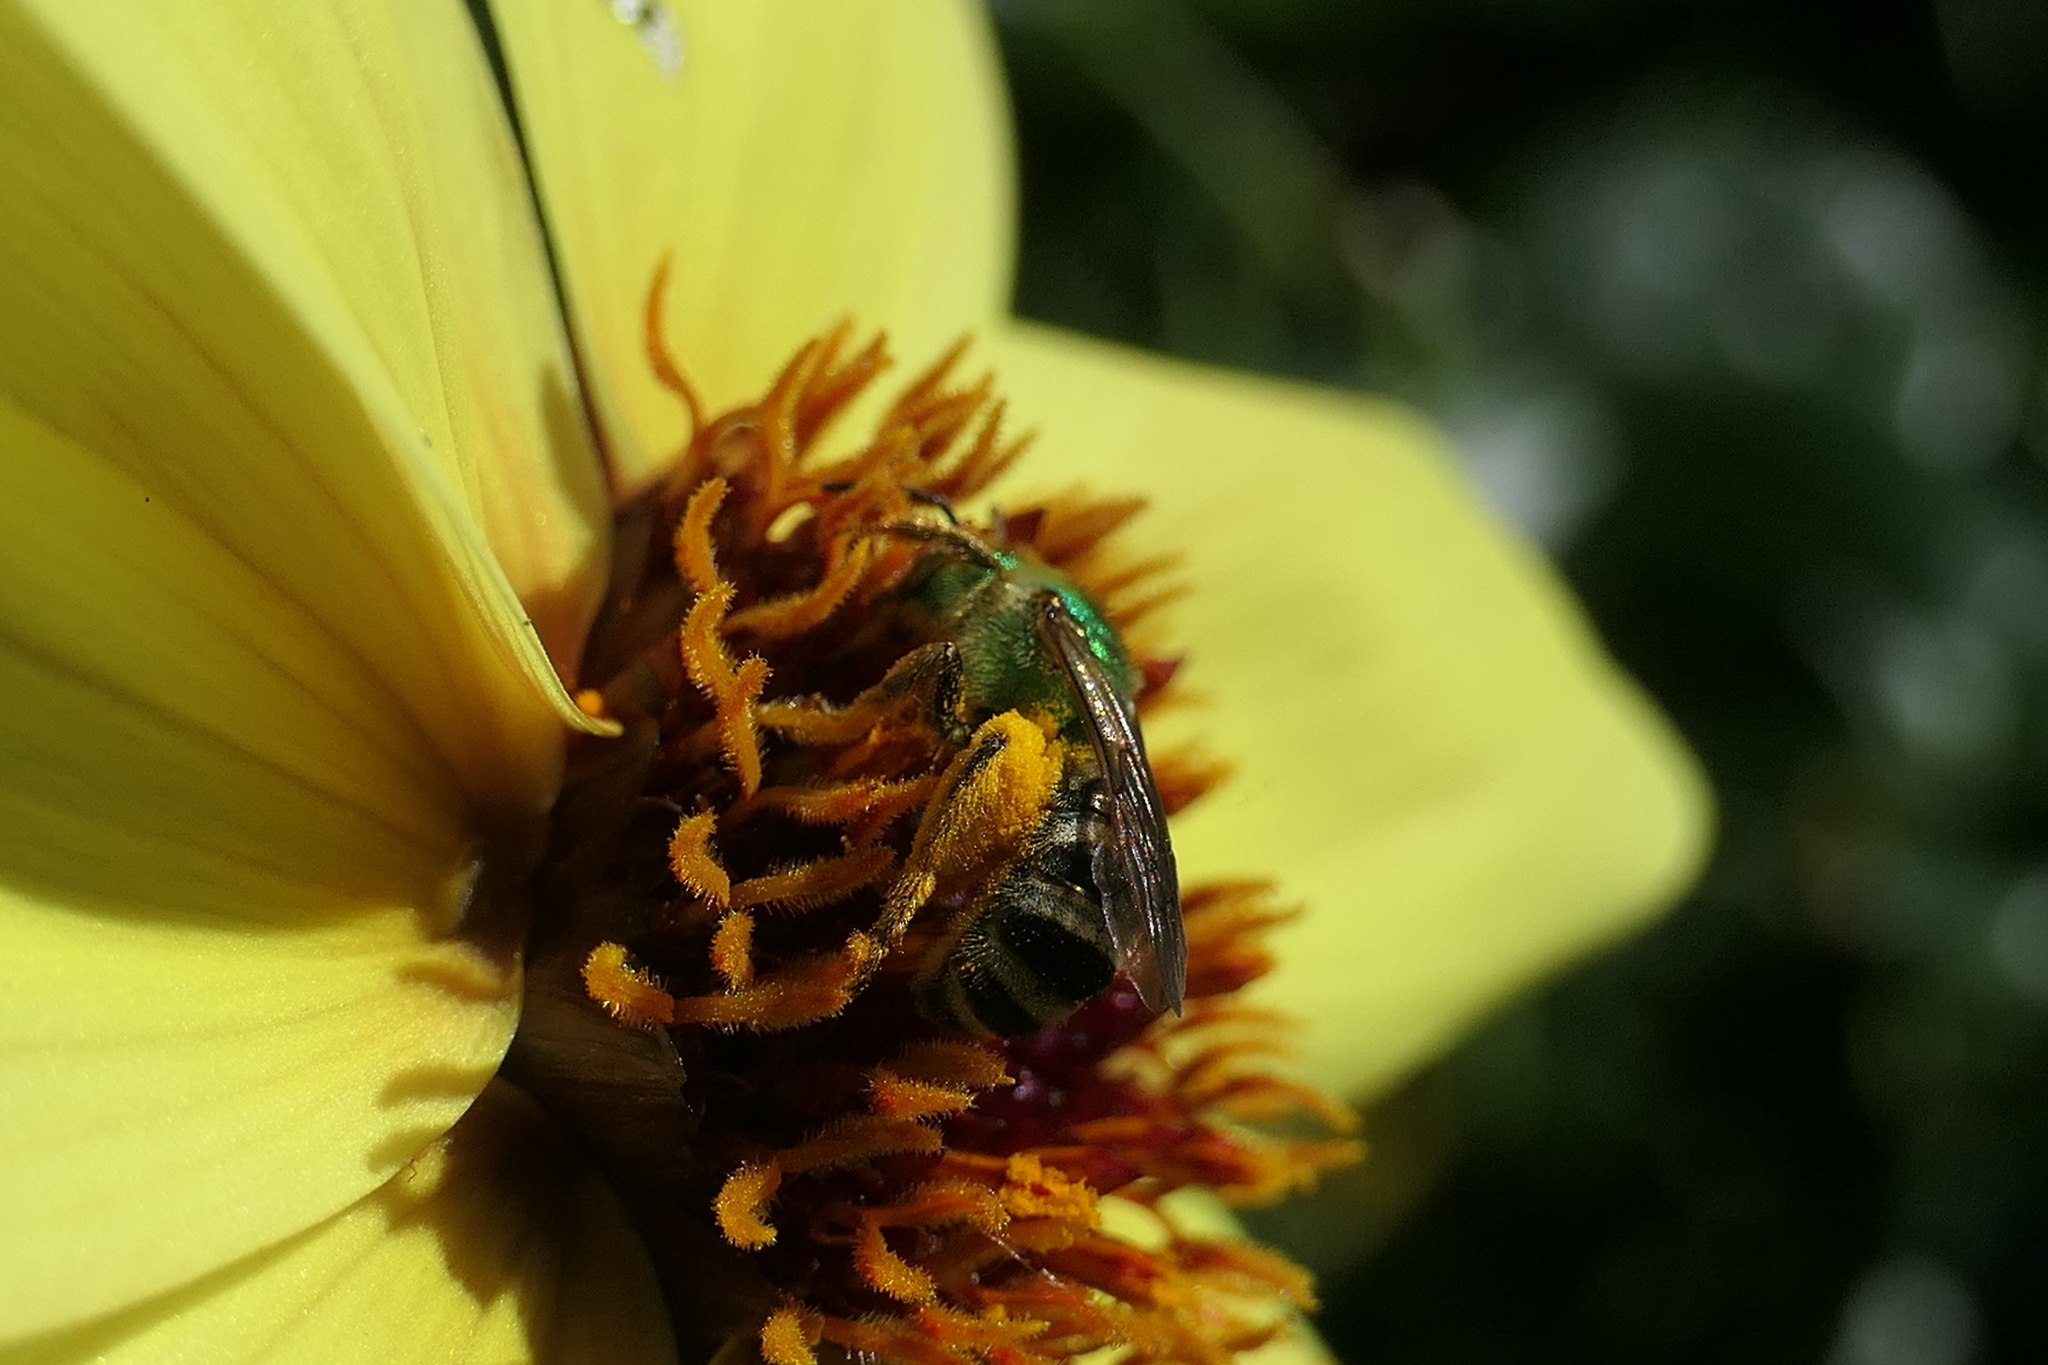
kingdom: Animalia
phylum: Arthropoda
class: Insecta
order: Hymenoptera
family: Halictidae
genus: Agapostemon
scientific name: Agapostemon virescens
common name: Bicolored striped sweat bee
